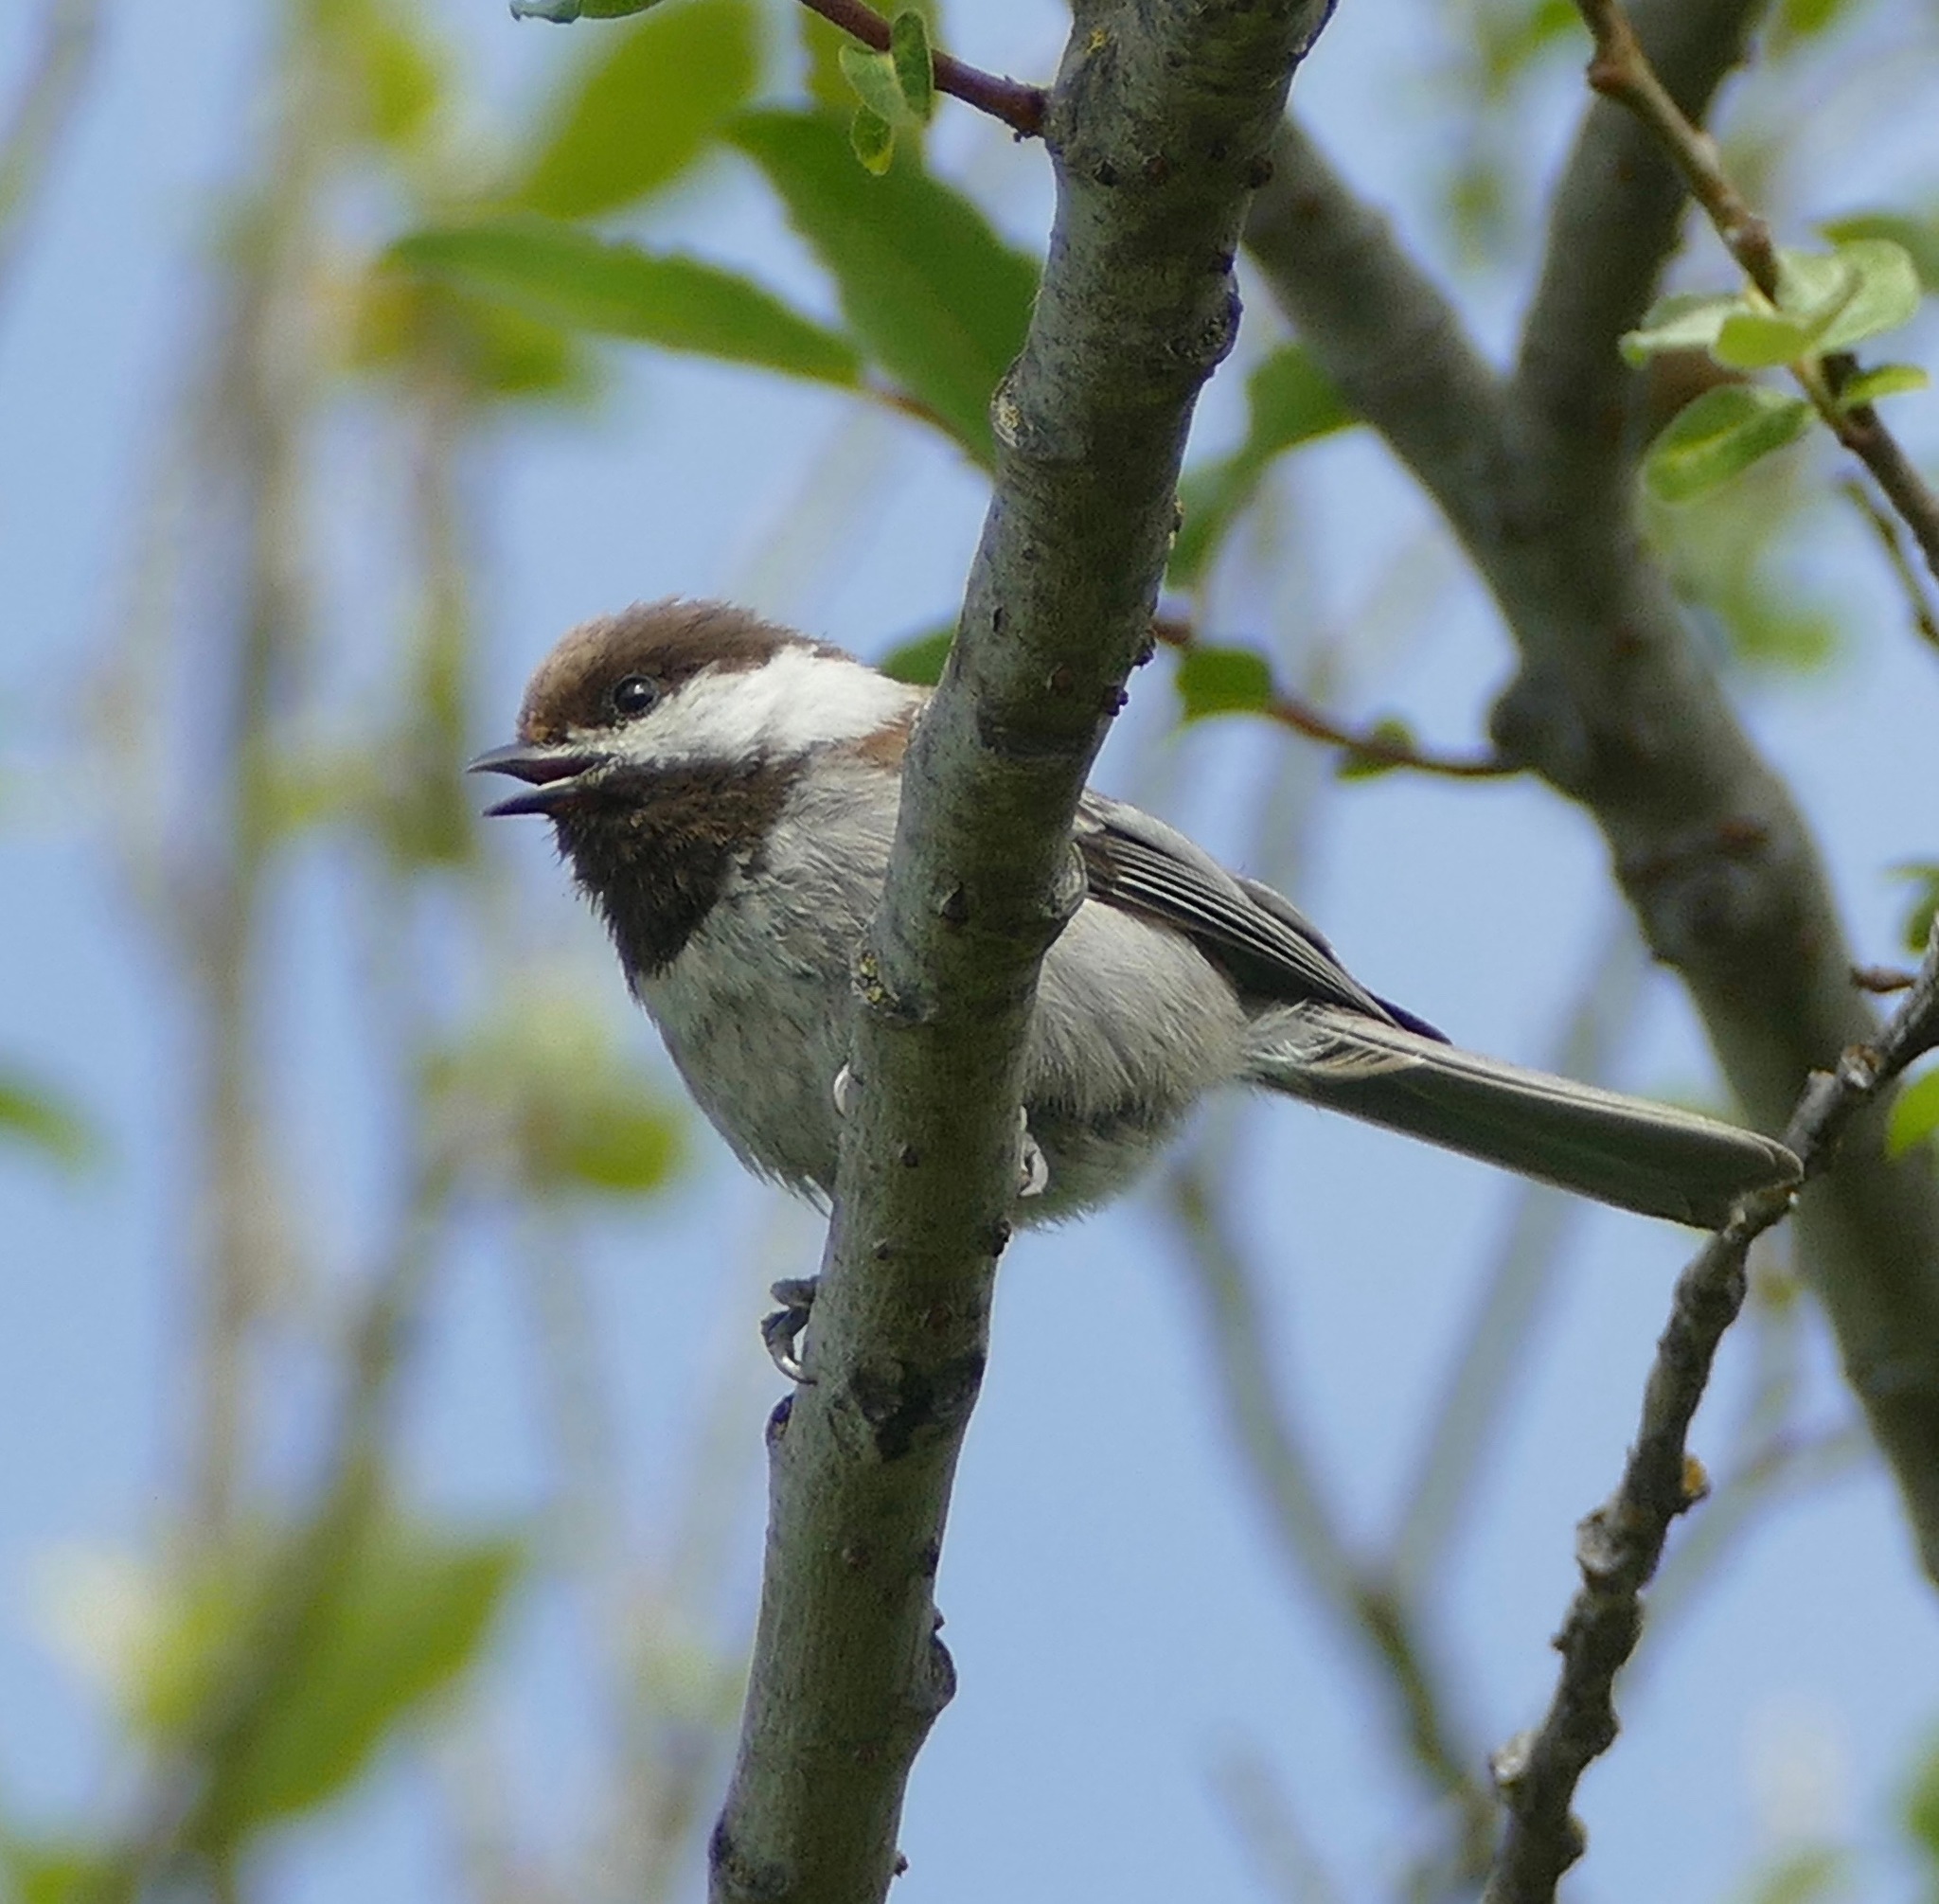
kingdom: Animalia
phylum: Chordata
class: Aves
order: Passeriformes
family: Paridae
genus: Poecile
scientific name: Poecile rufescens
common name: Chestnut-backed chickadee
